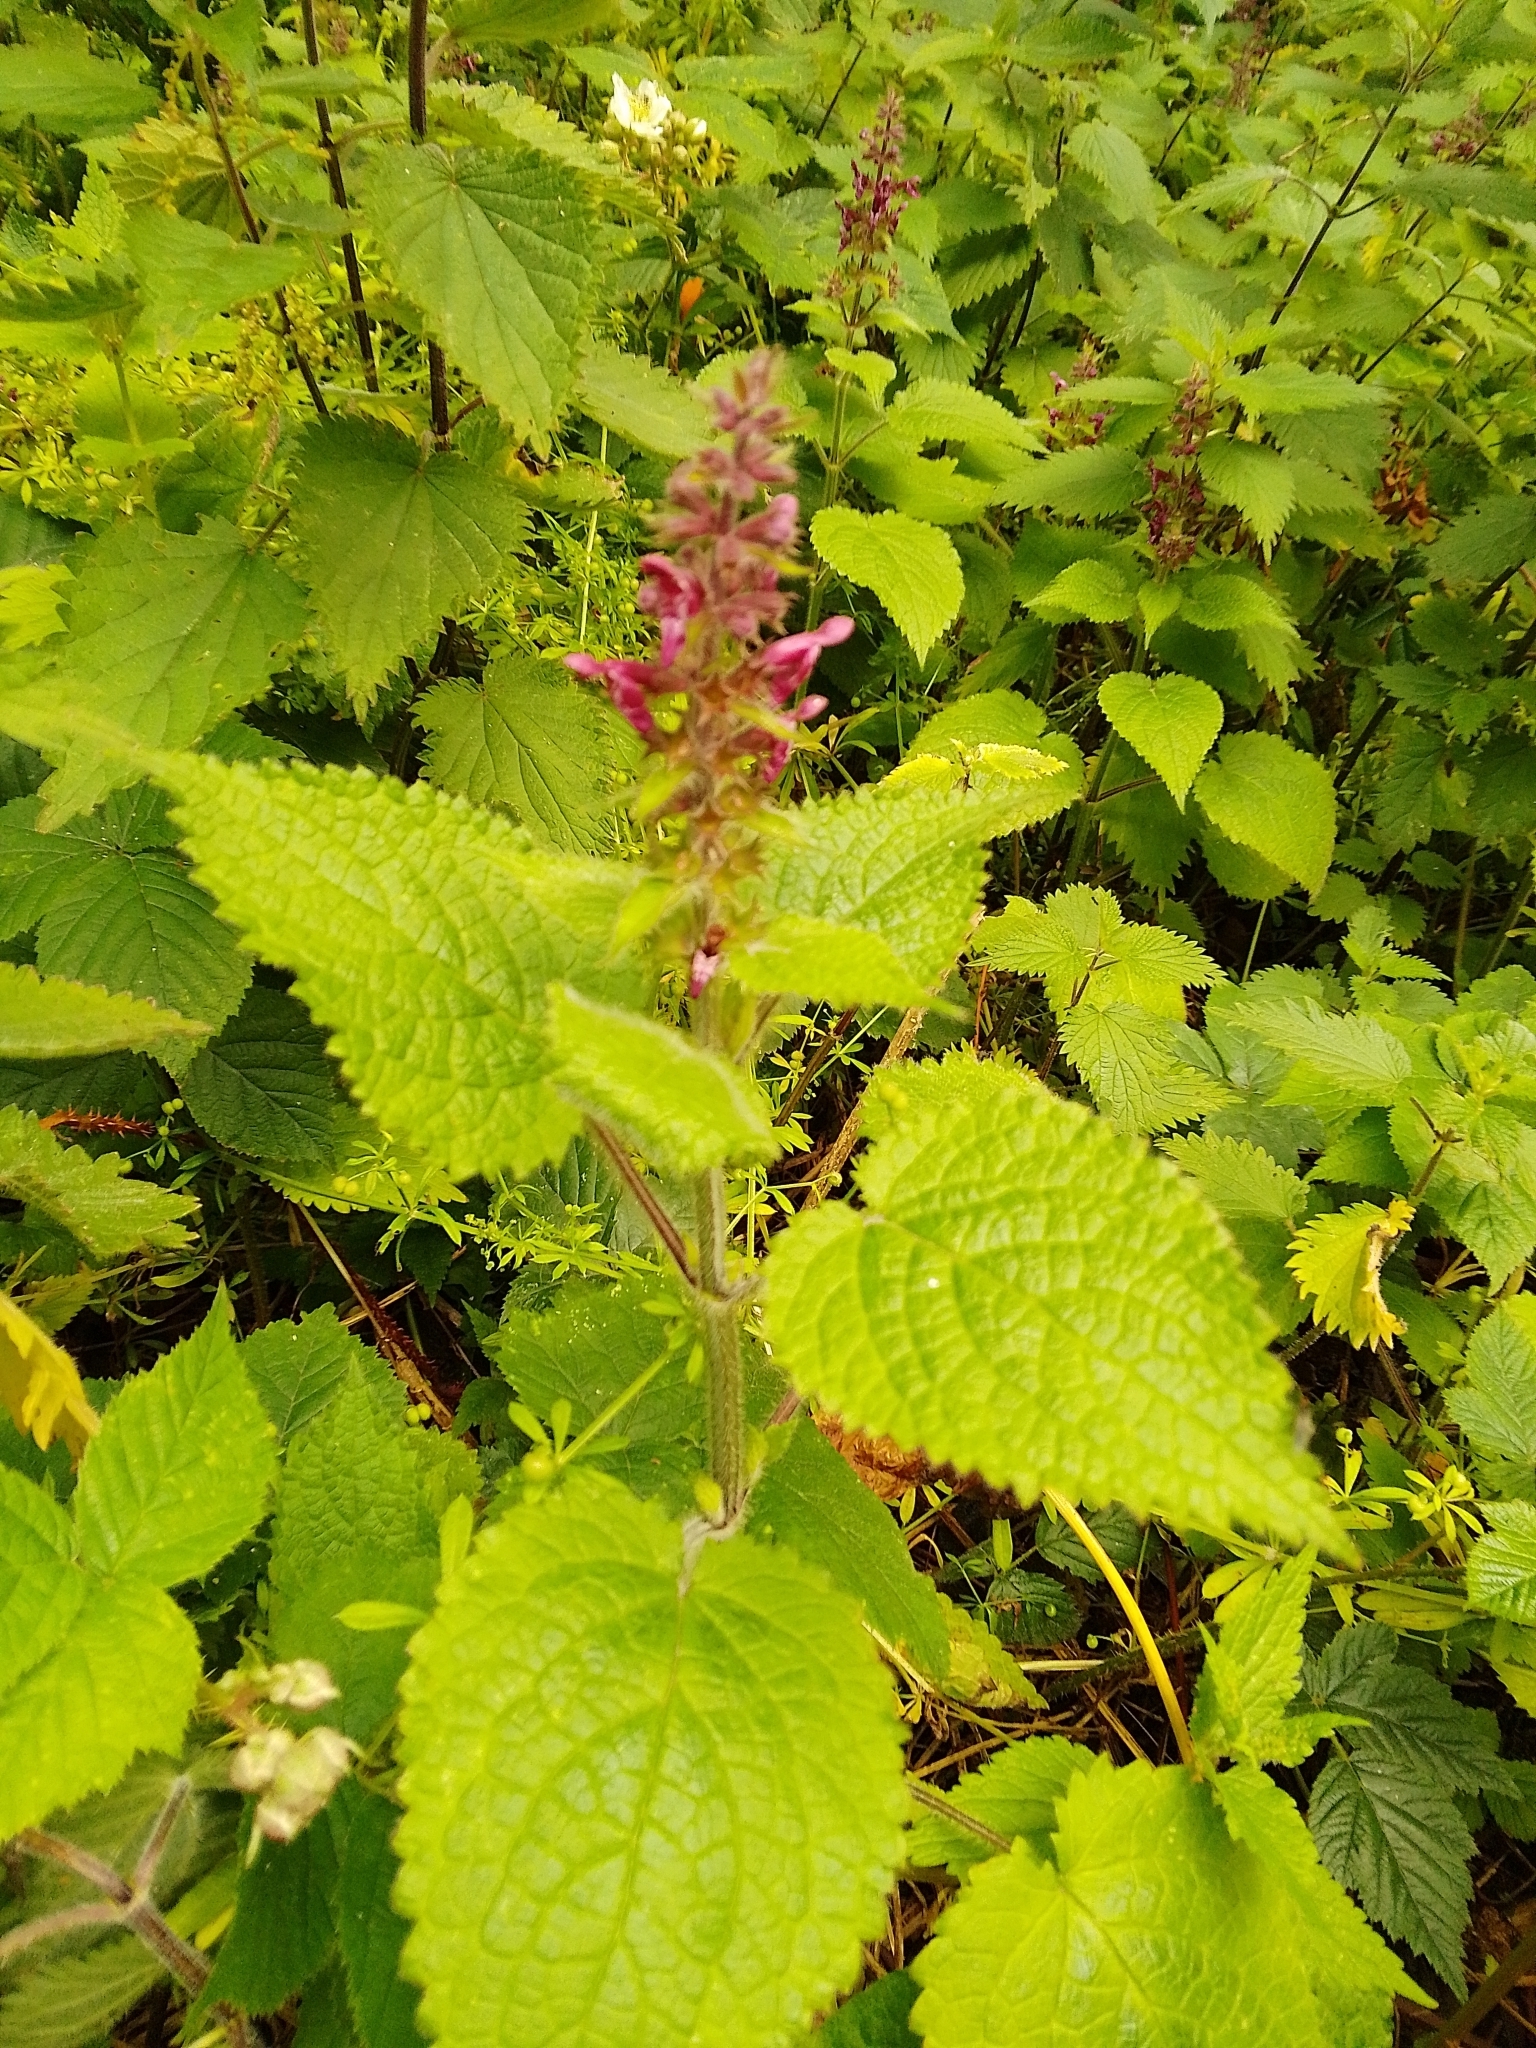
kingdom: Plantae
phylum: Tracheophyta
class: Magnoliopsida
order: Lamiales
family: Lamiaceae
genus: Stachys
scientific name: Stachys sylvatica
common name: Hedge woundwort
